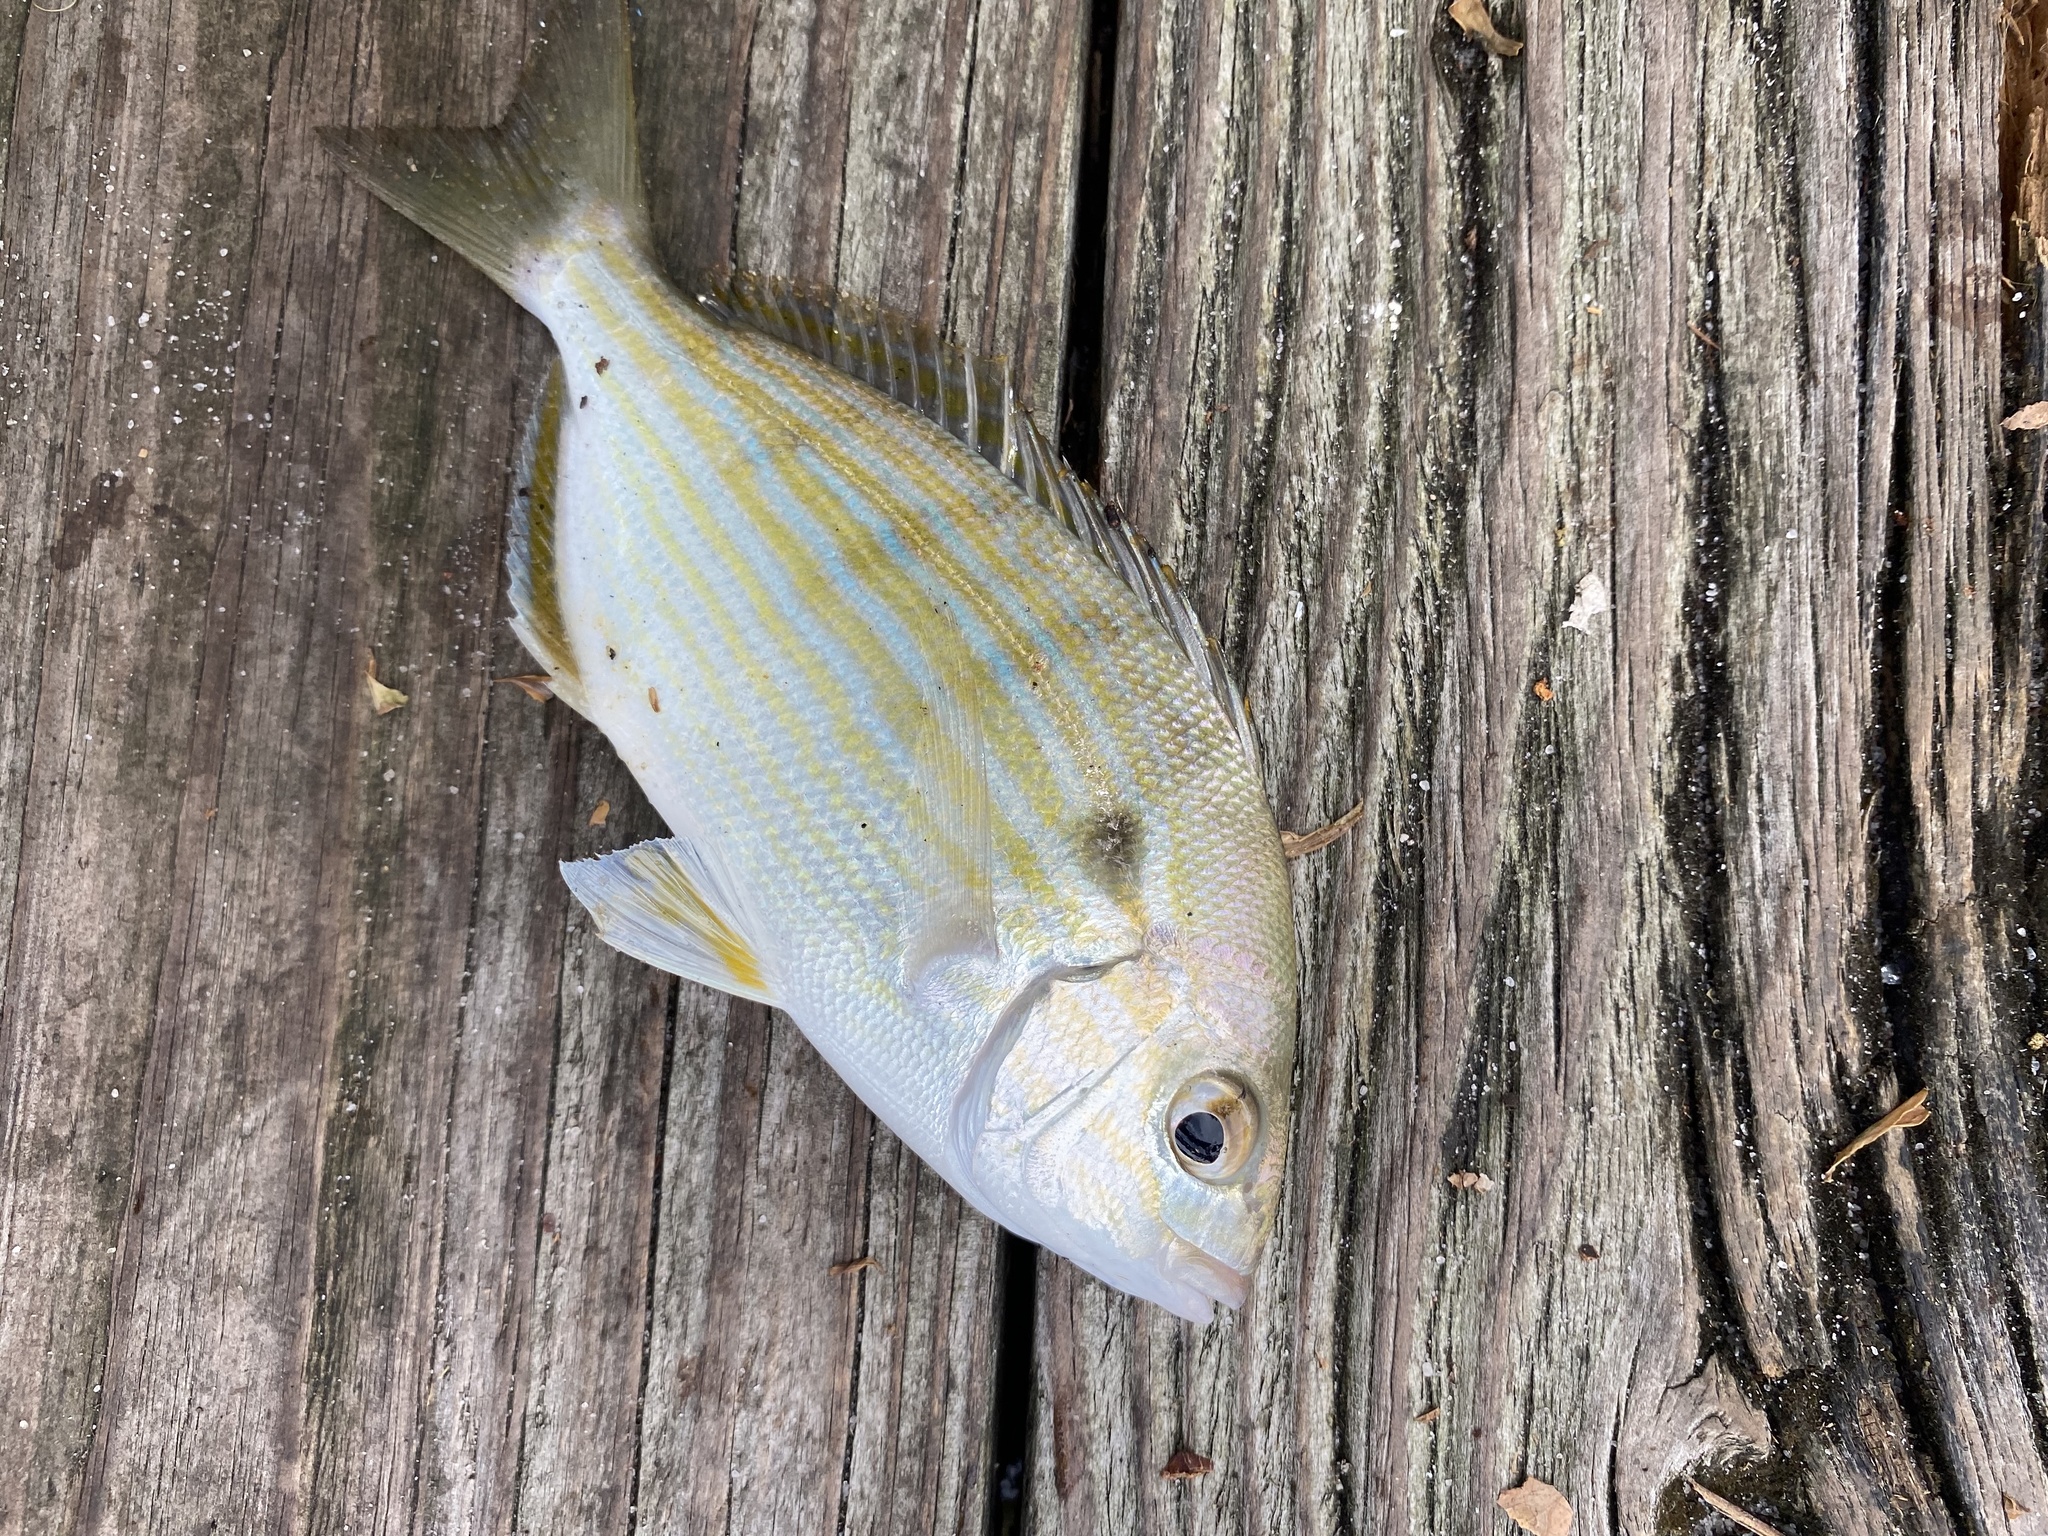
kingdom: Animalia
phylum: Chordata
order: Perciformes
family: Sparidae
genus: Lagodon
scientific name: Lagodon rhomboides
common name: Pinfish
